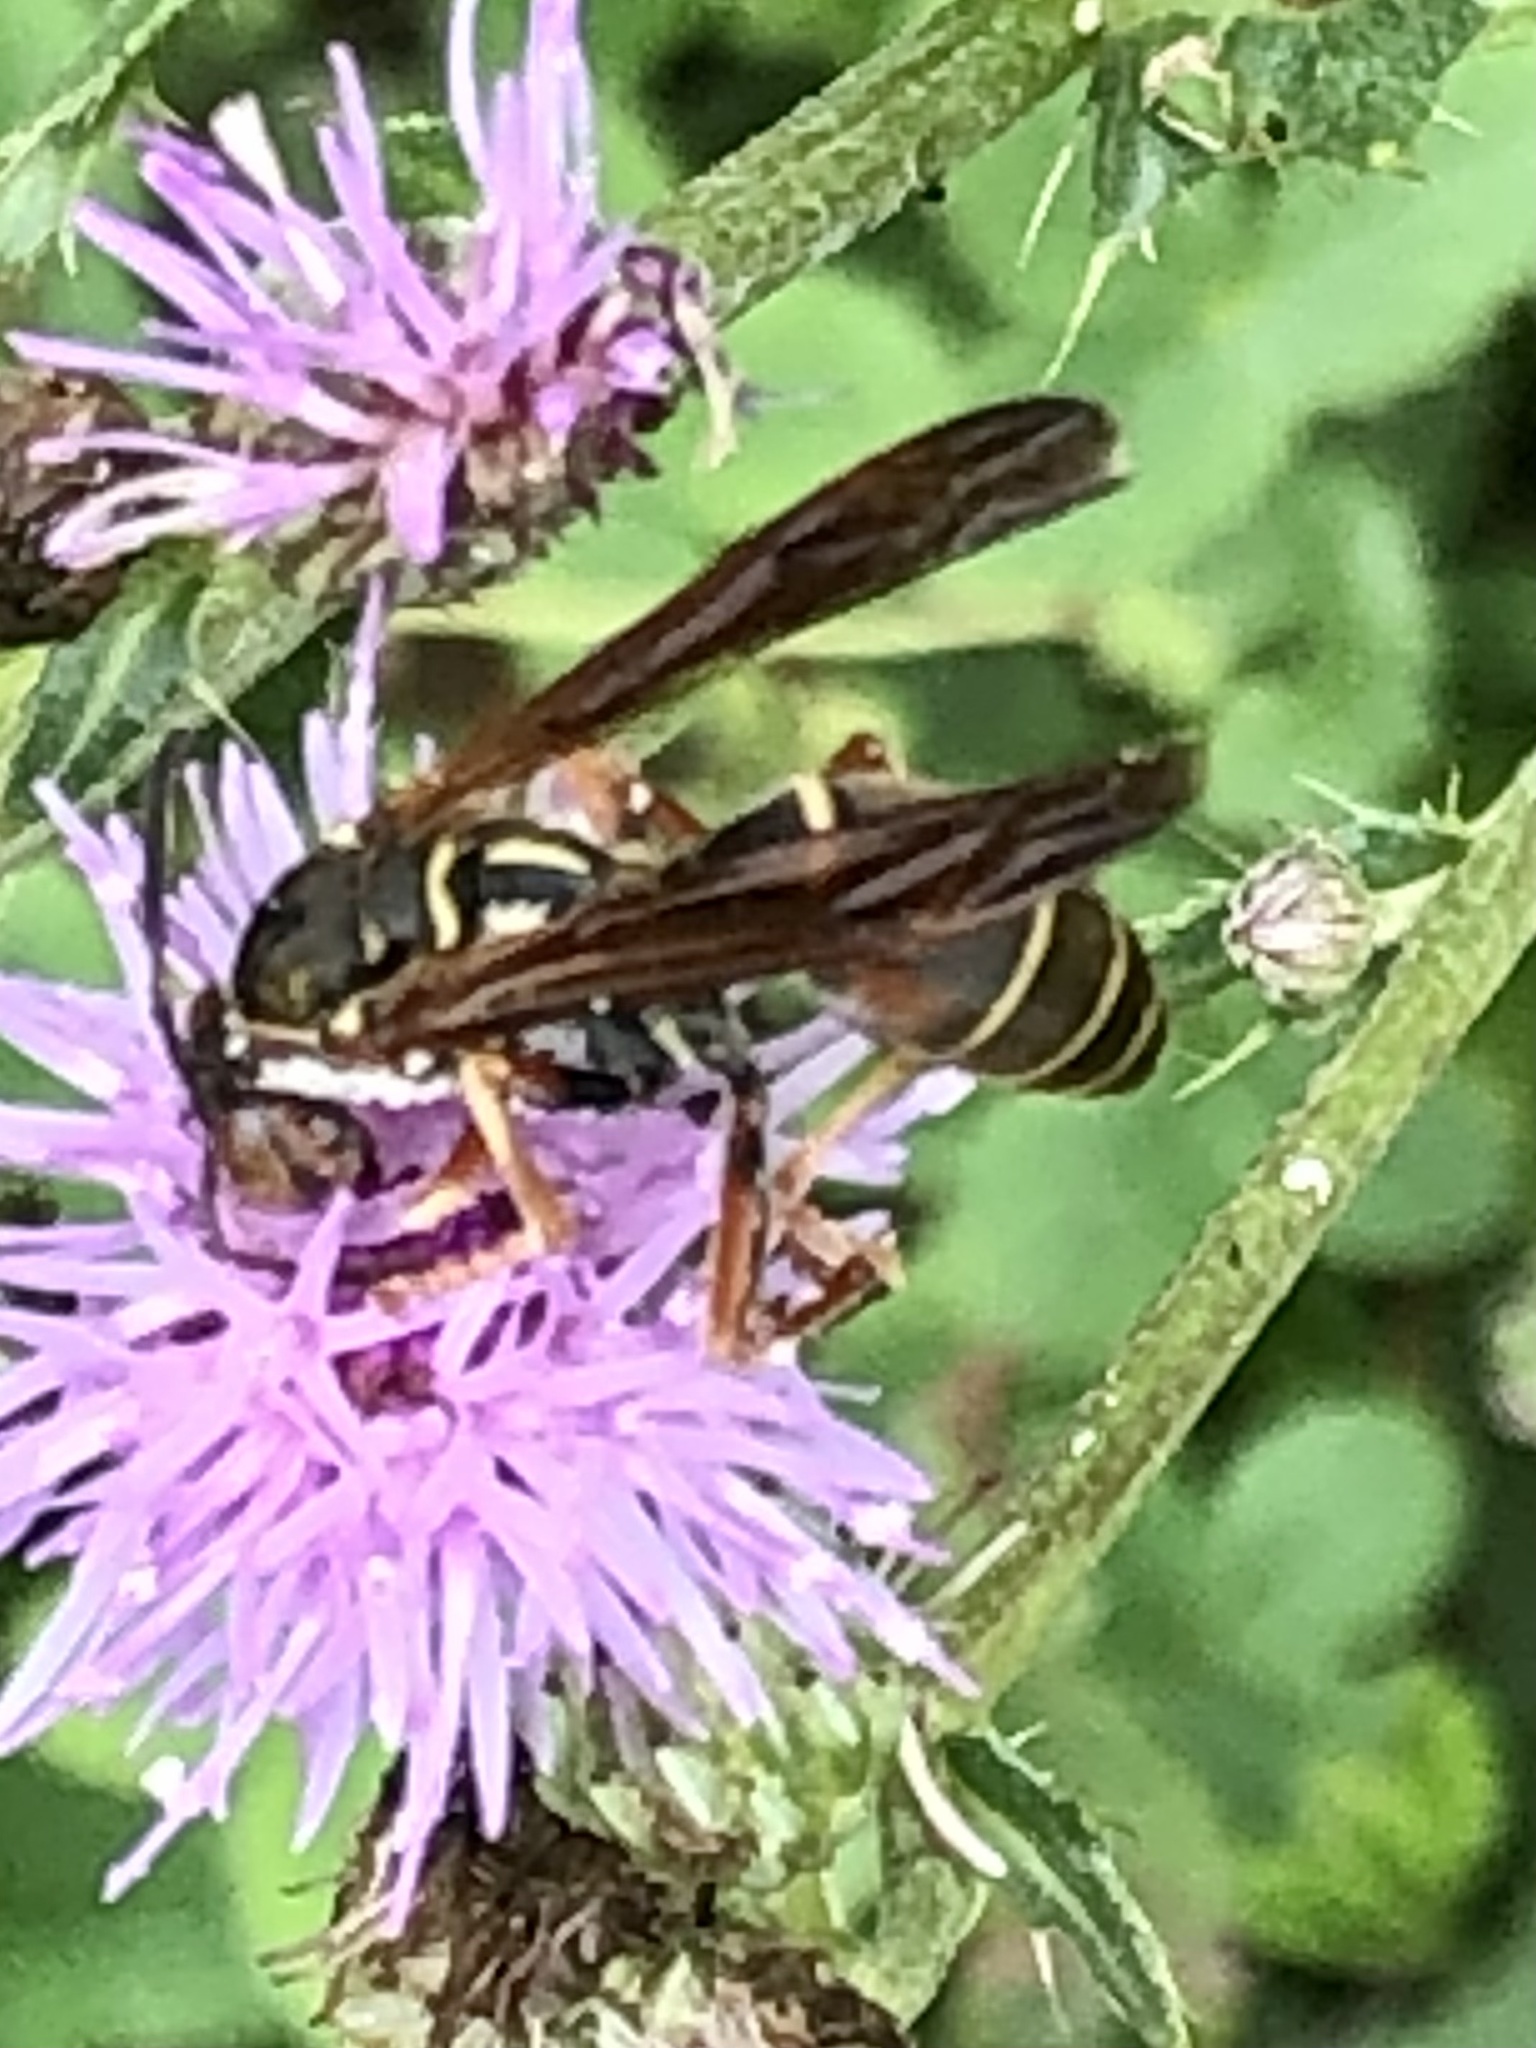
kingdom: Animalia
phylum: Arthropoda
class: Insecta
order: Hymenoptera
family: Eumenidae
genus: Polistes
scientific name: Polistes fuscatus
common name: Dark paper wasp
